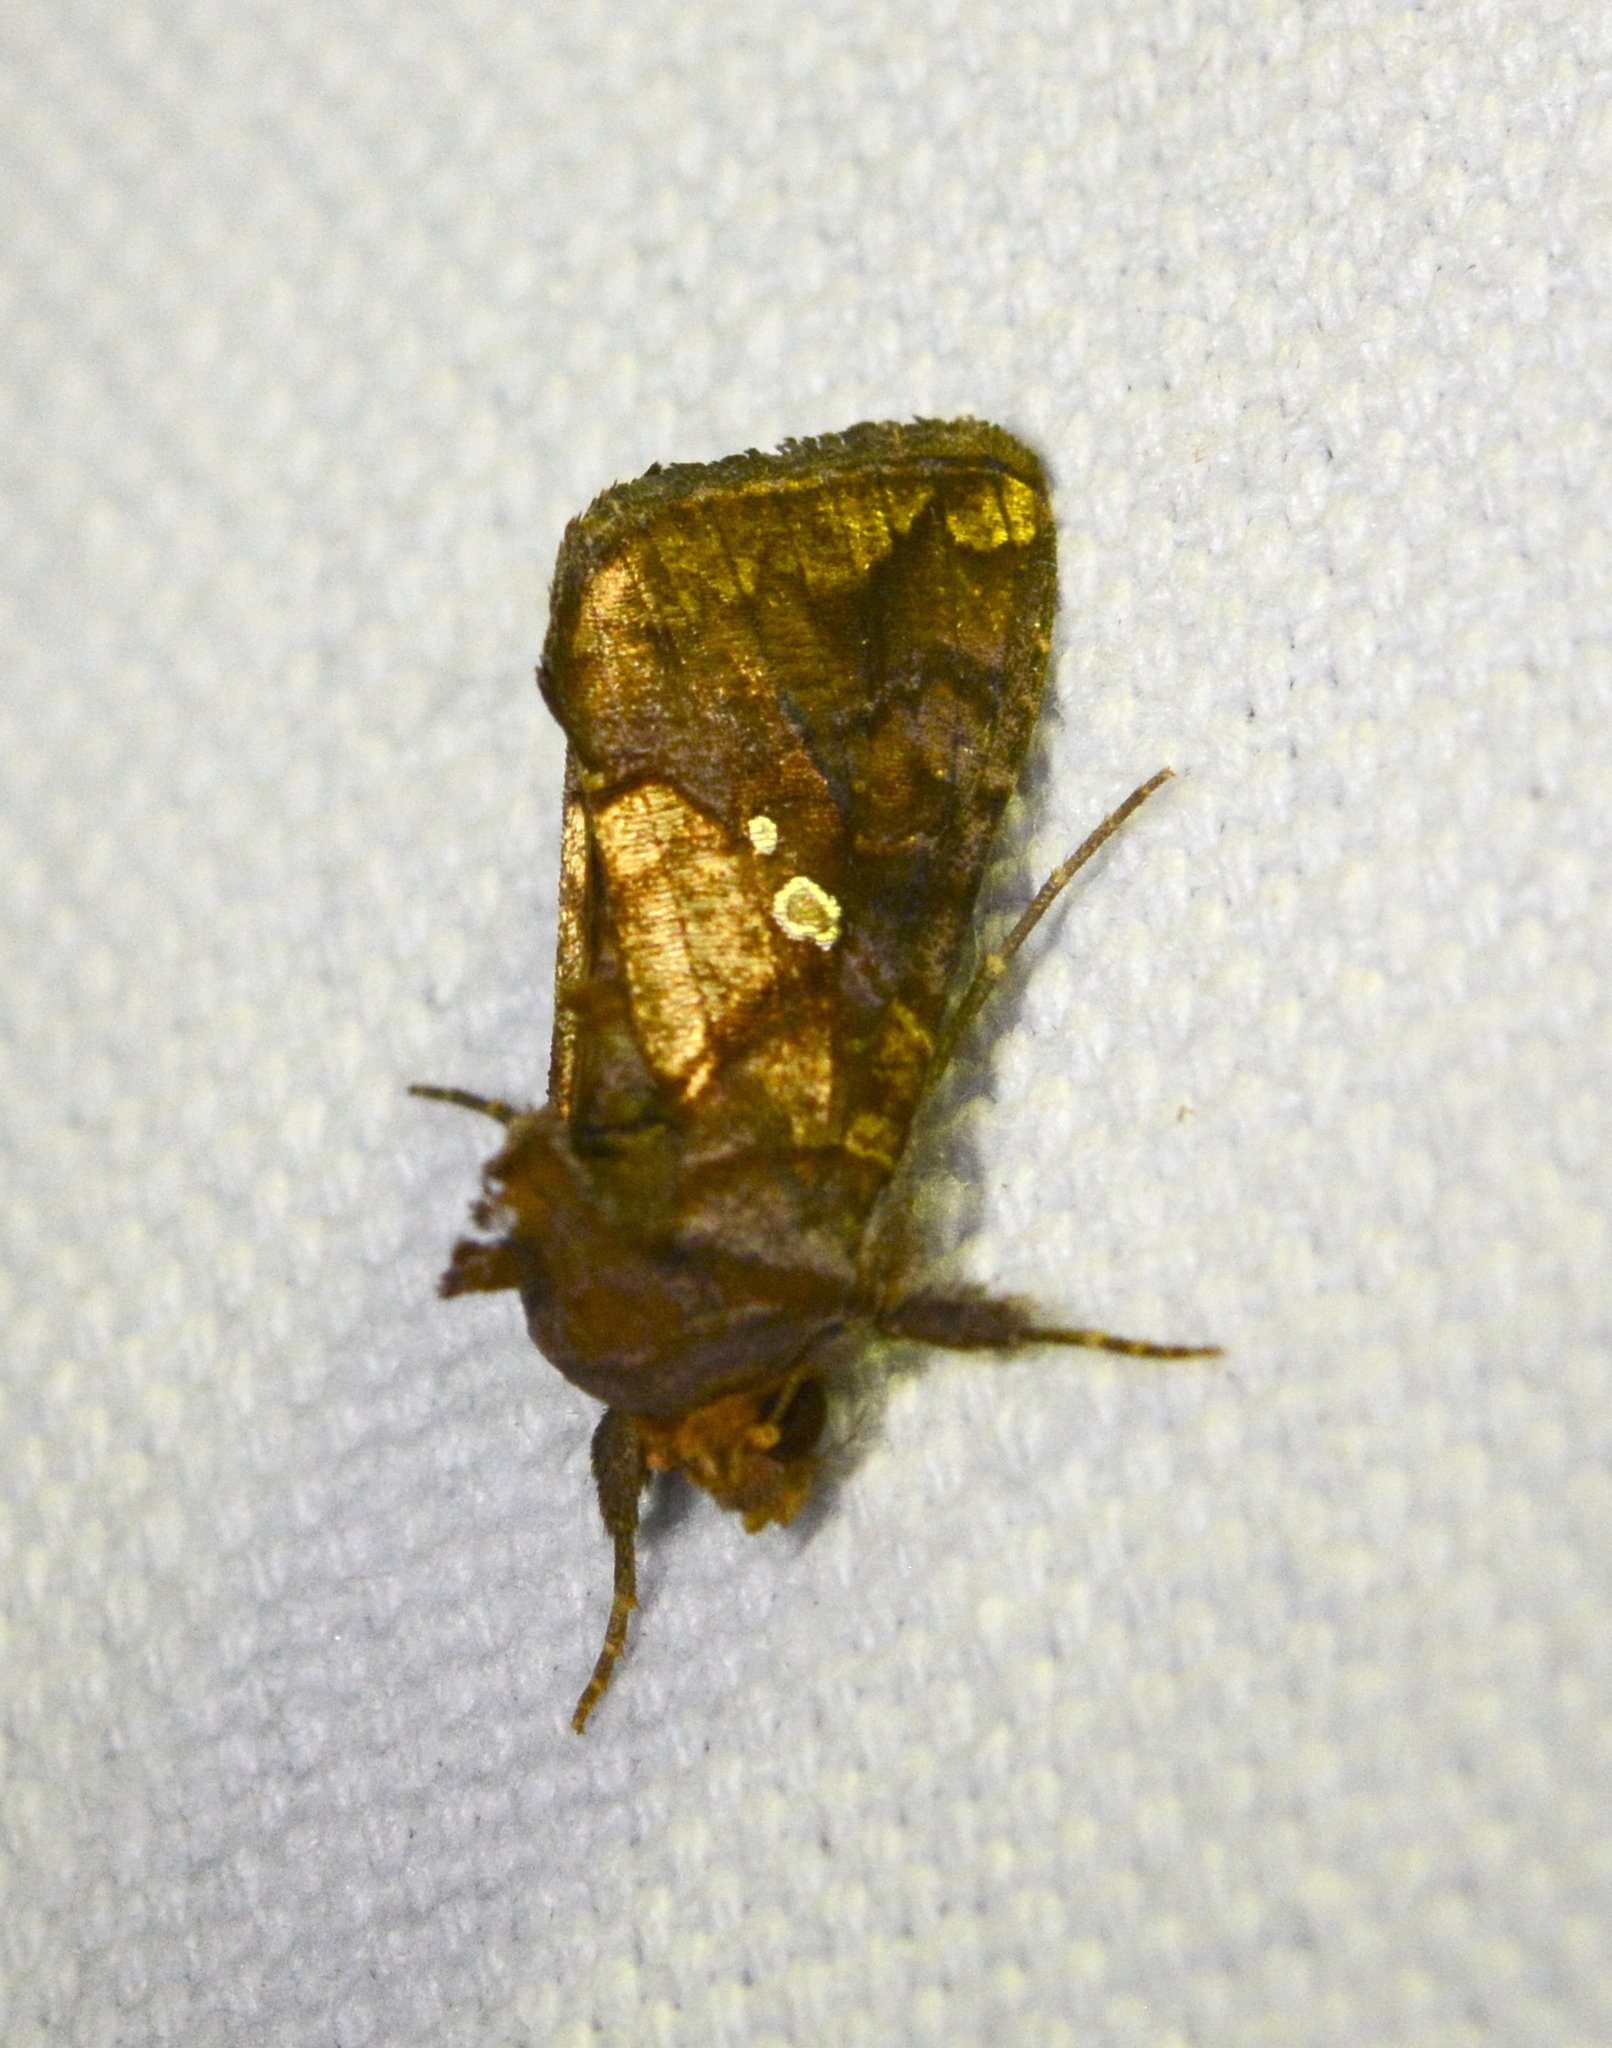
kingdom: Animalia
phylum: Arthropoda
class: Insecta
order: Lepidoptera
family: Noctuidae
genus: Argyrogramma
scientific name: Argyrogramma verruca
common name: Golden looper moth
